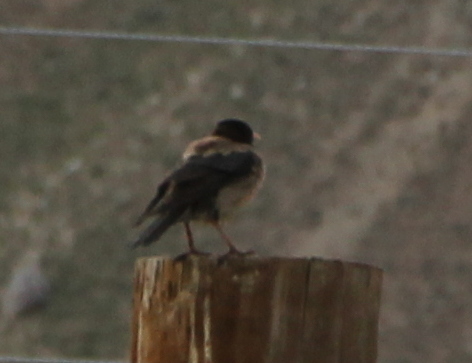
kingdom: Animalia
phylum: Chordata
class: Aves
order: Passeriformes
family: Sturnidae
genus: Pastor
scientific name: Pastor roseus
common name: Rosy starling
